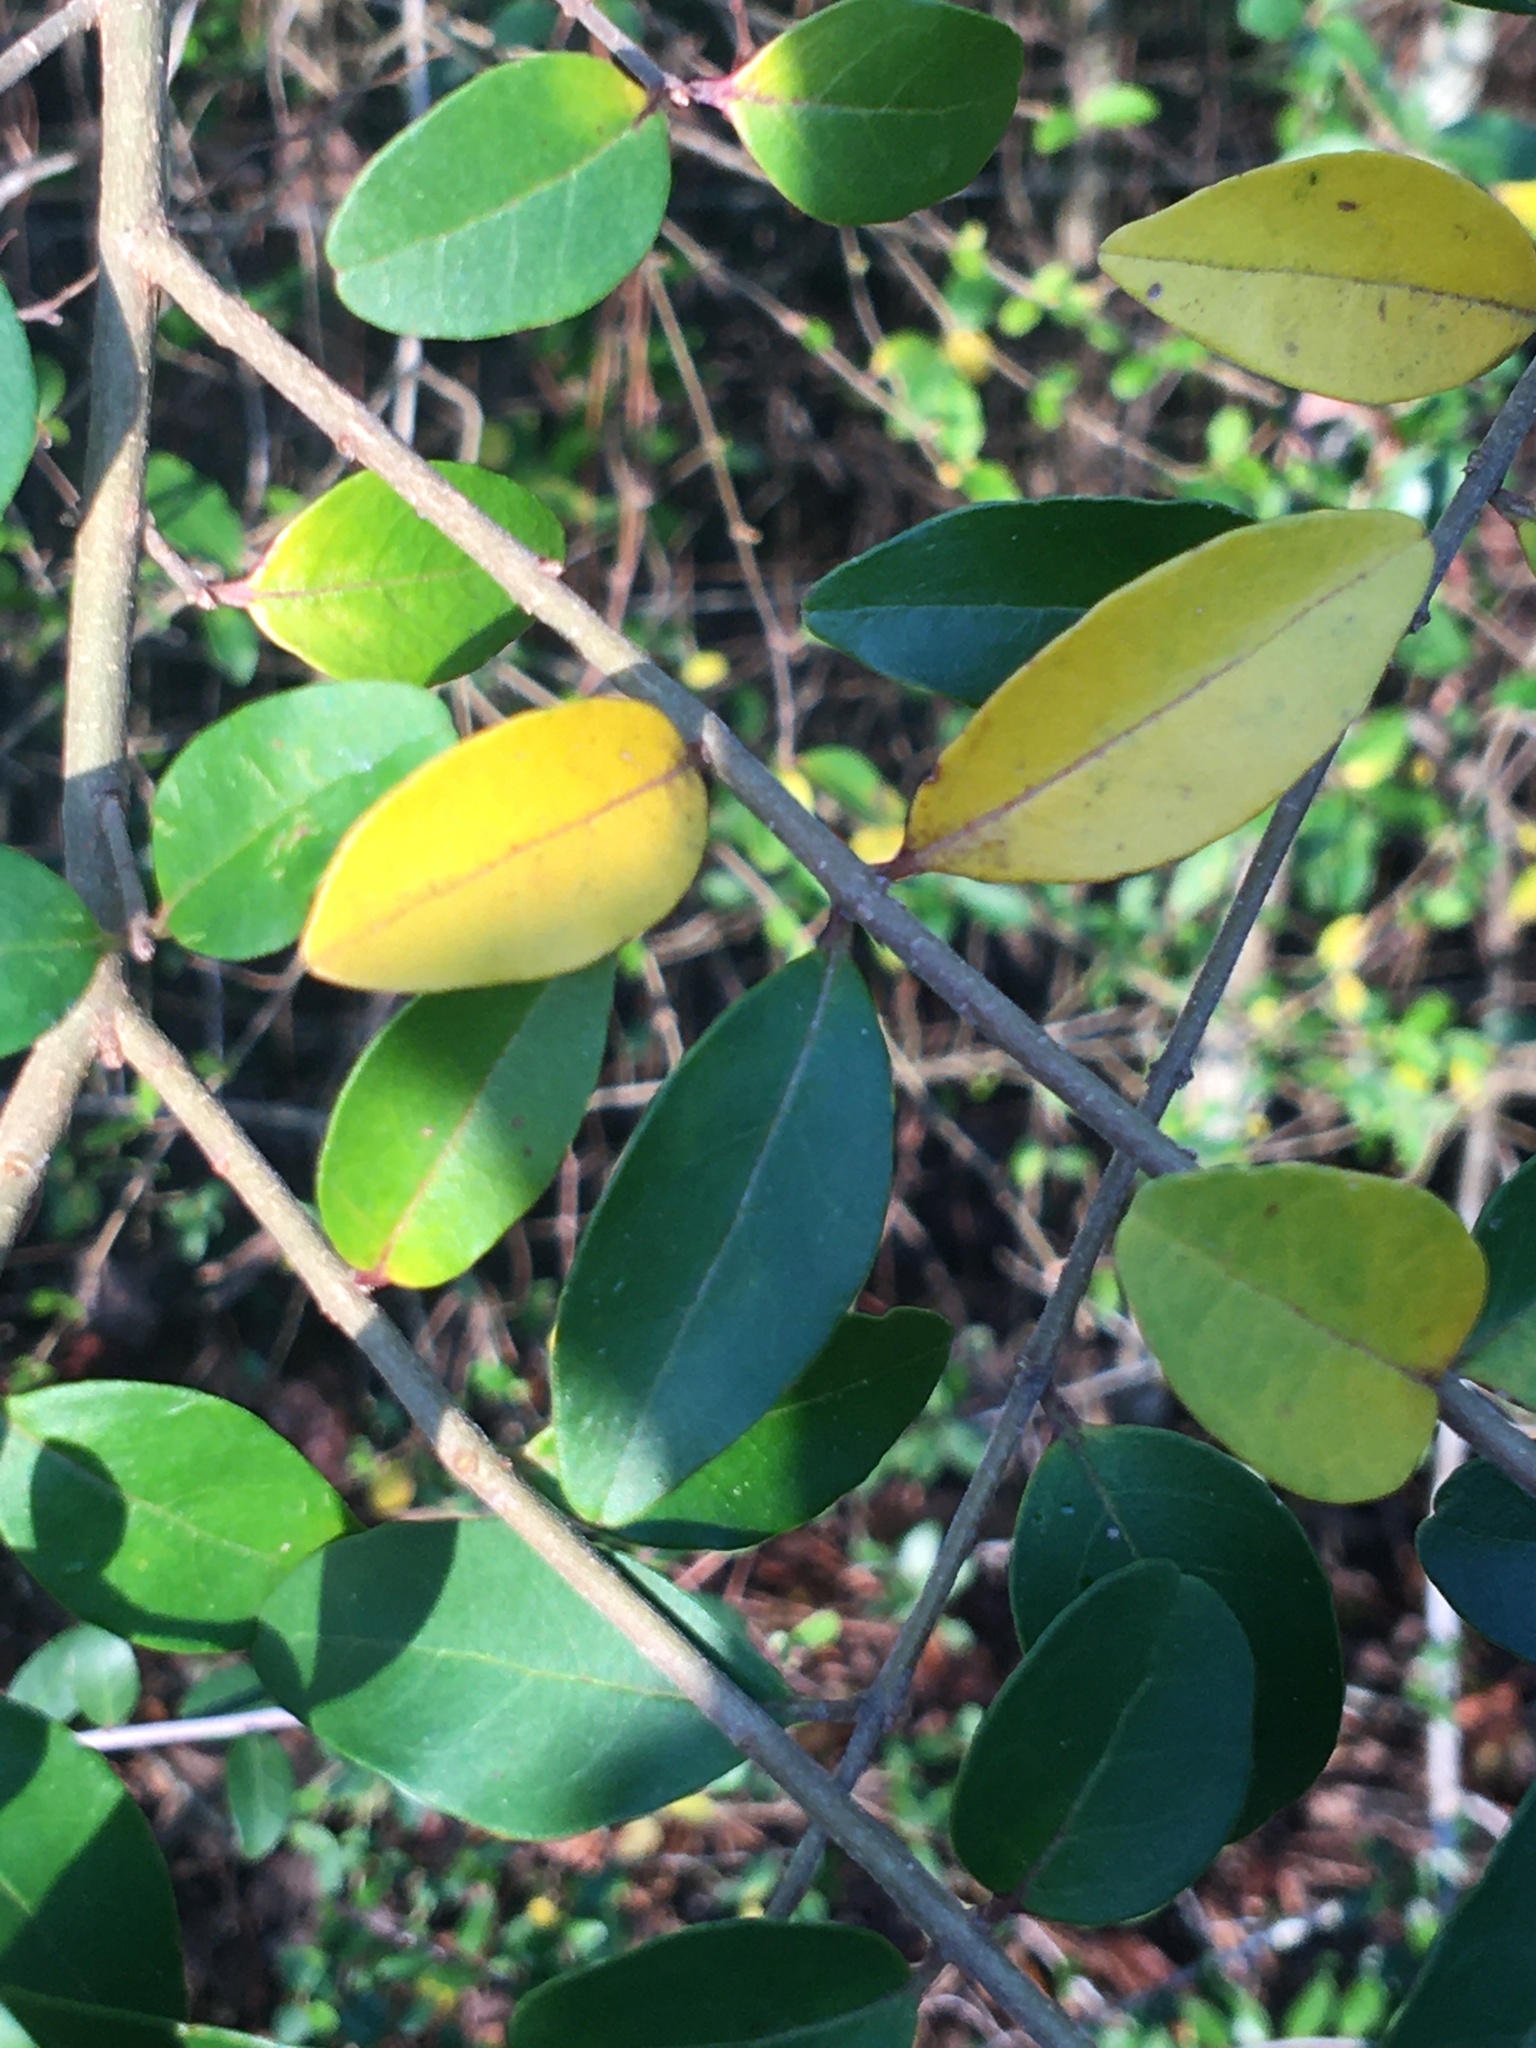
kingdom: Plantae
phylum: Tracheophyta
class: Magnoliopsida
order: Aquifoliales
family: Aquifoliaceae
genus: Ilex
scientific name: Ilex vomitoria
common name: Yaupon holly
